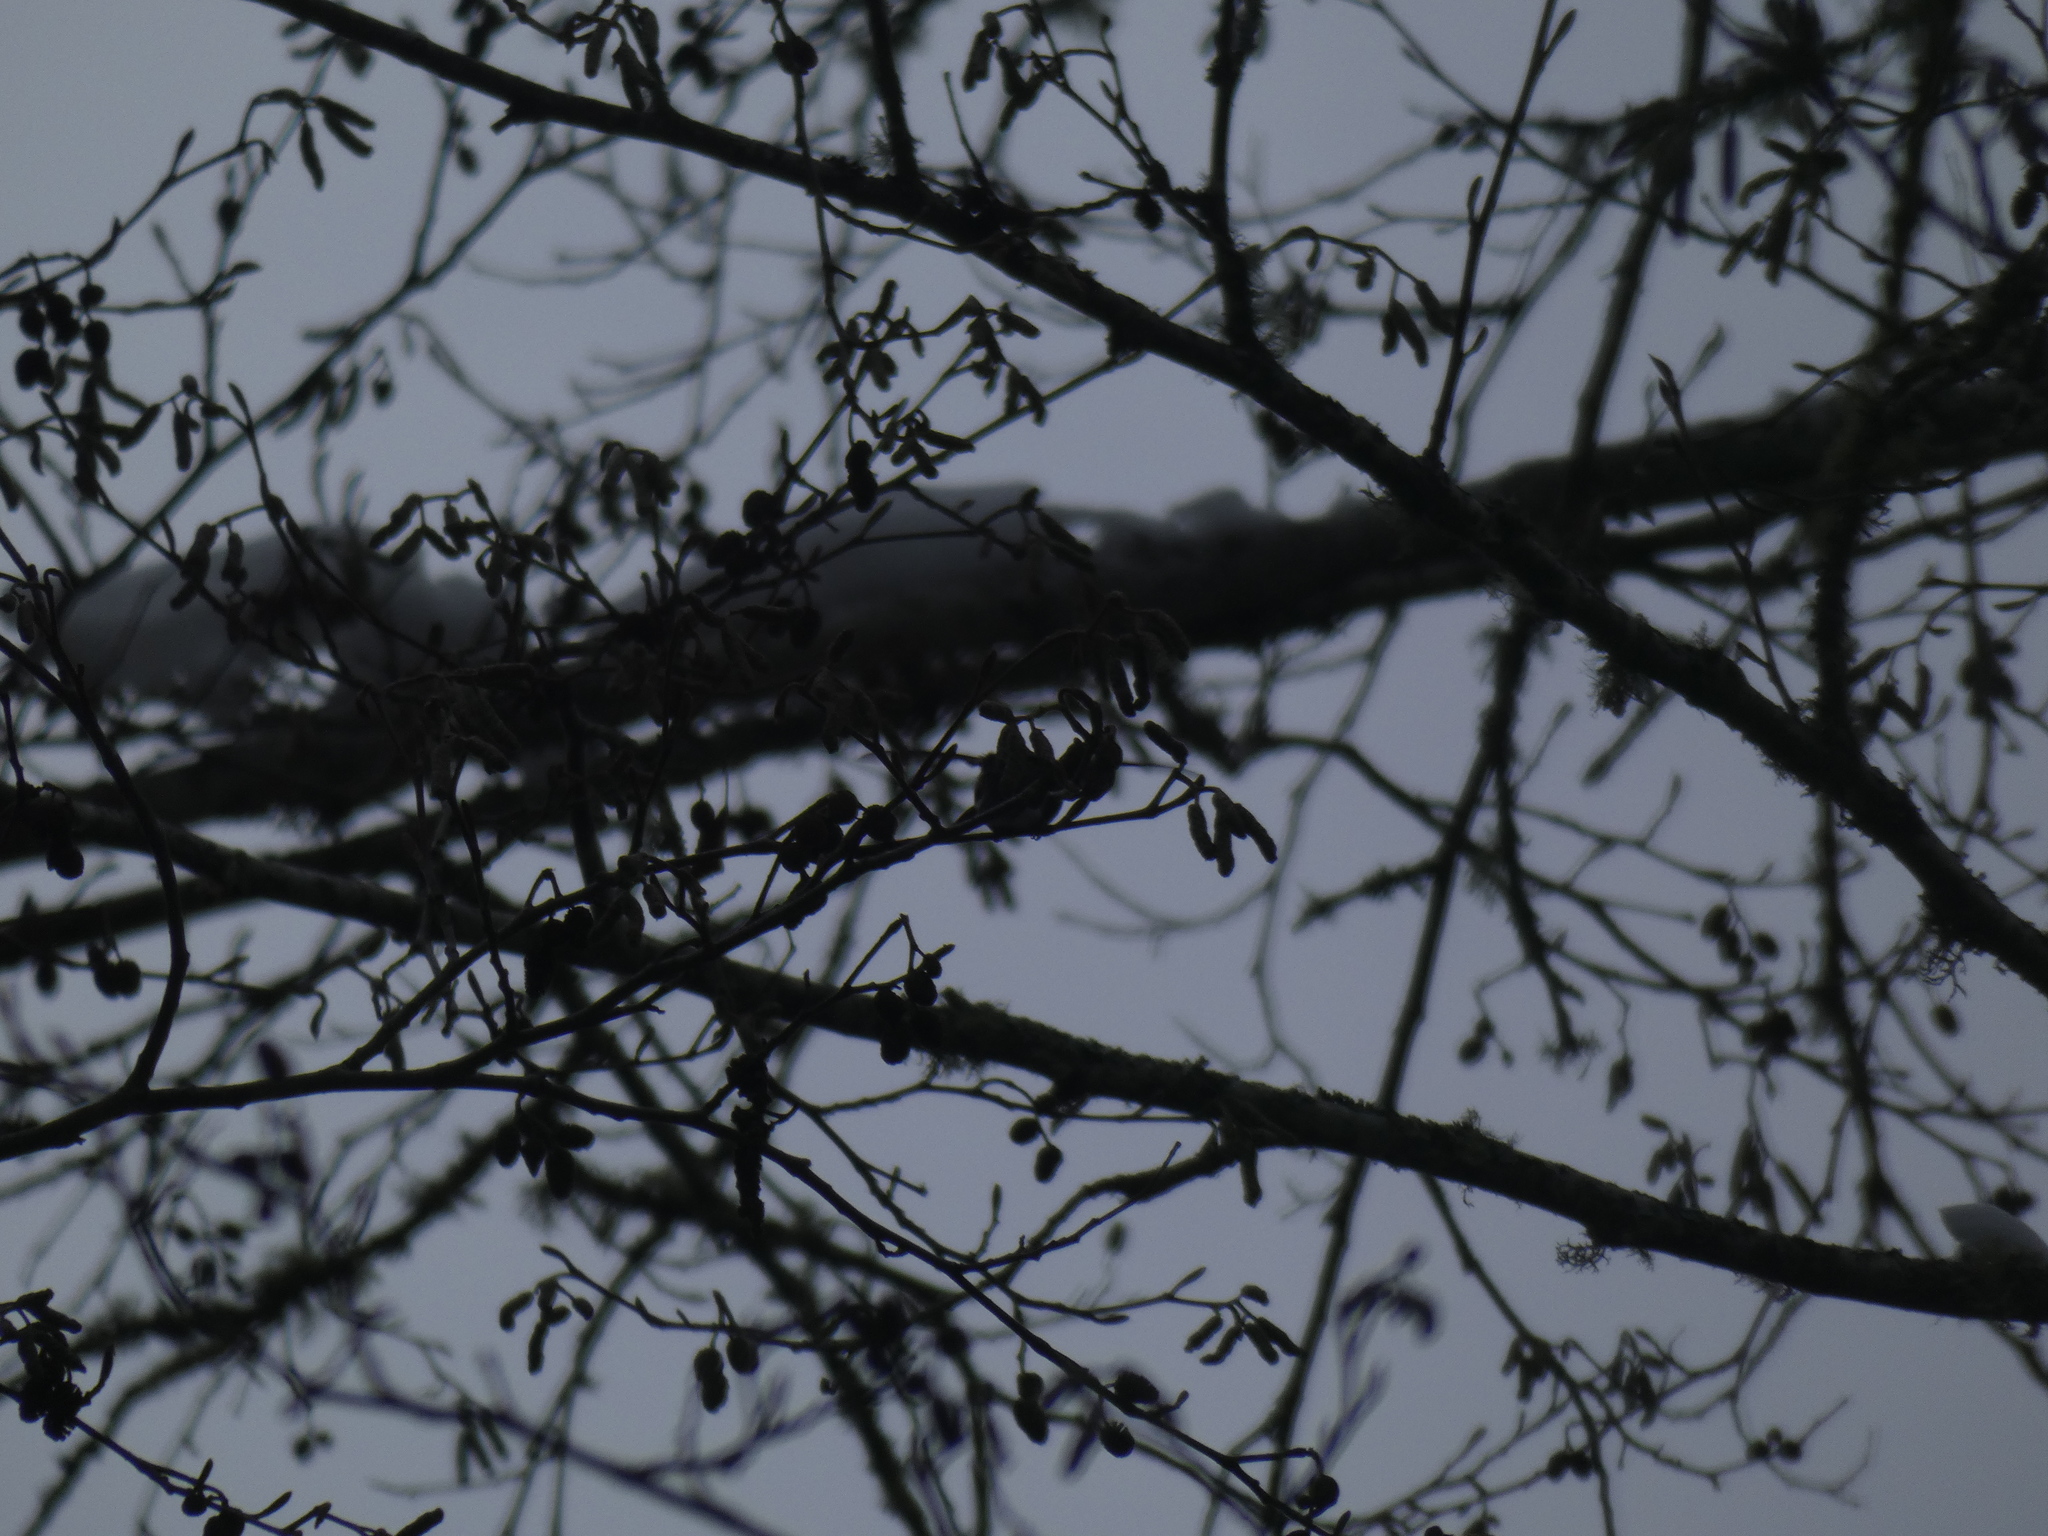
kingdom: Animalia
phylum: Chordata
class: Aves
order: Apodiformes
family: Trochilidae
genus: Calypte
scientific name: Calypte anna
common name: Anna's hummingbird
